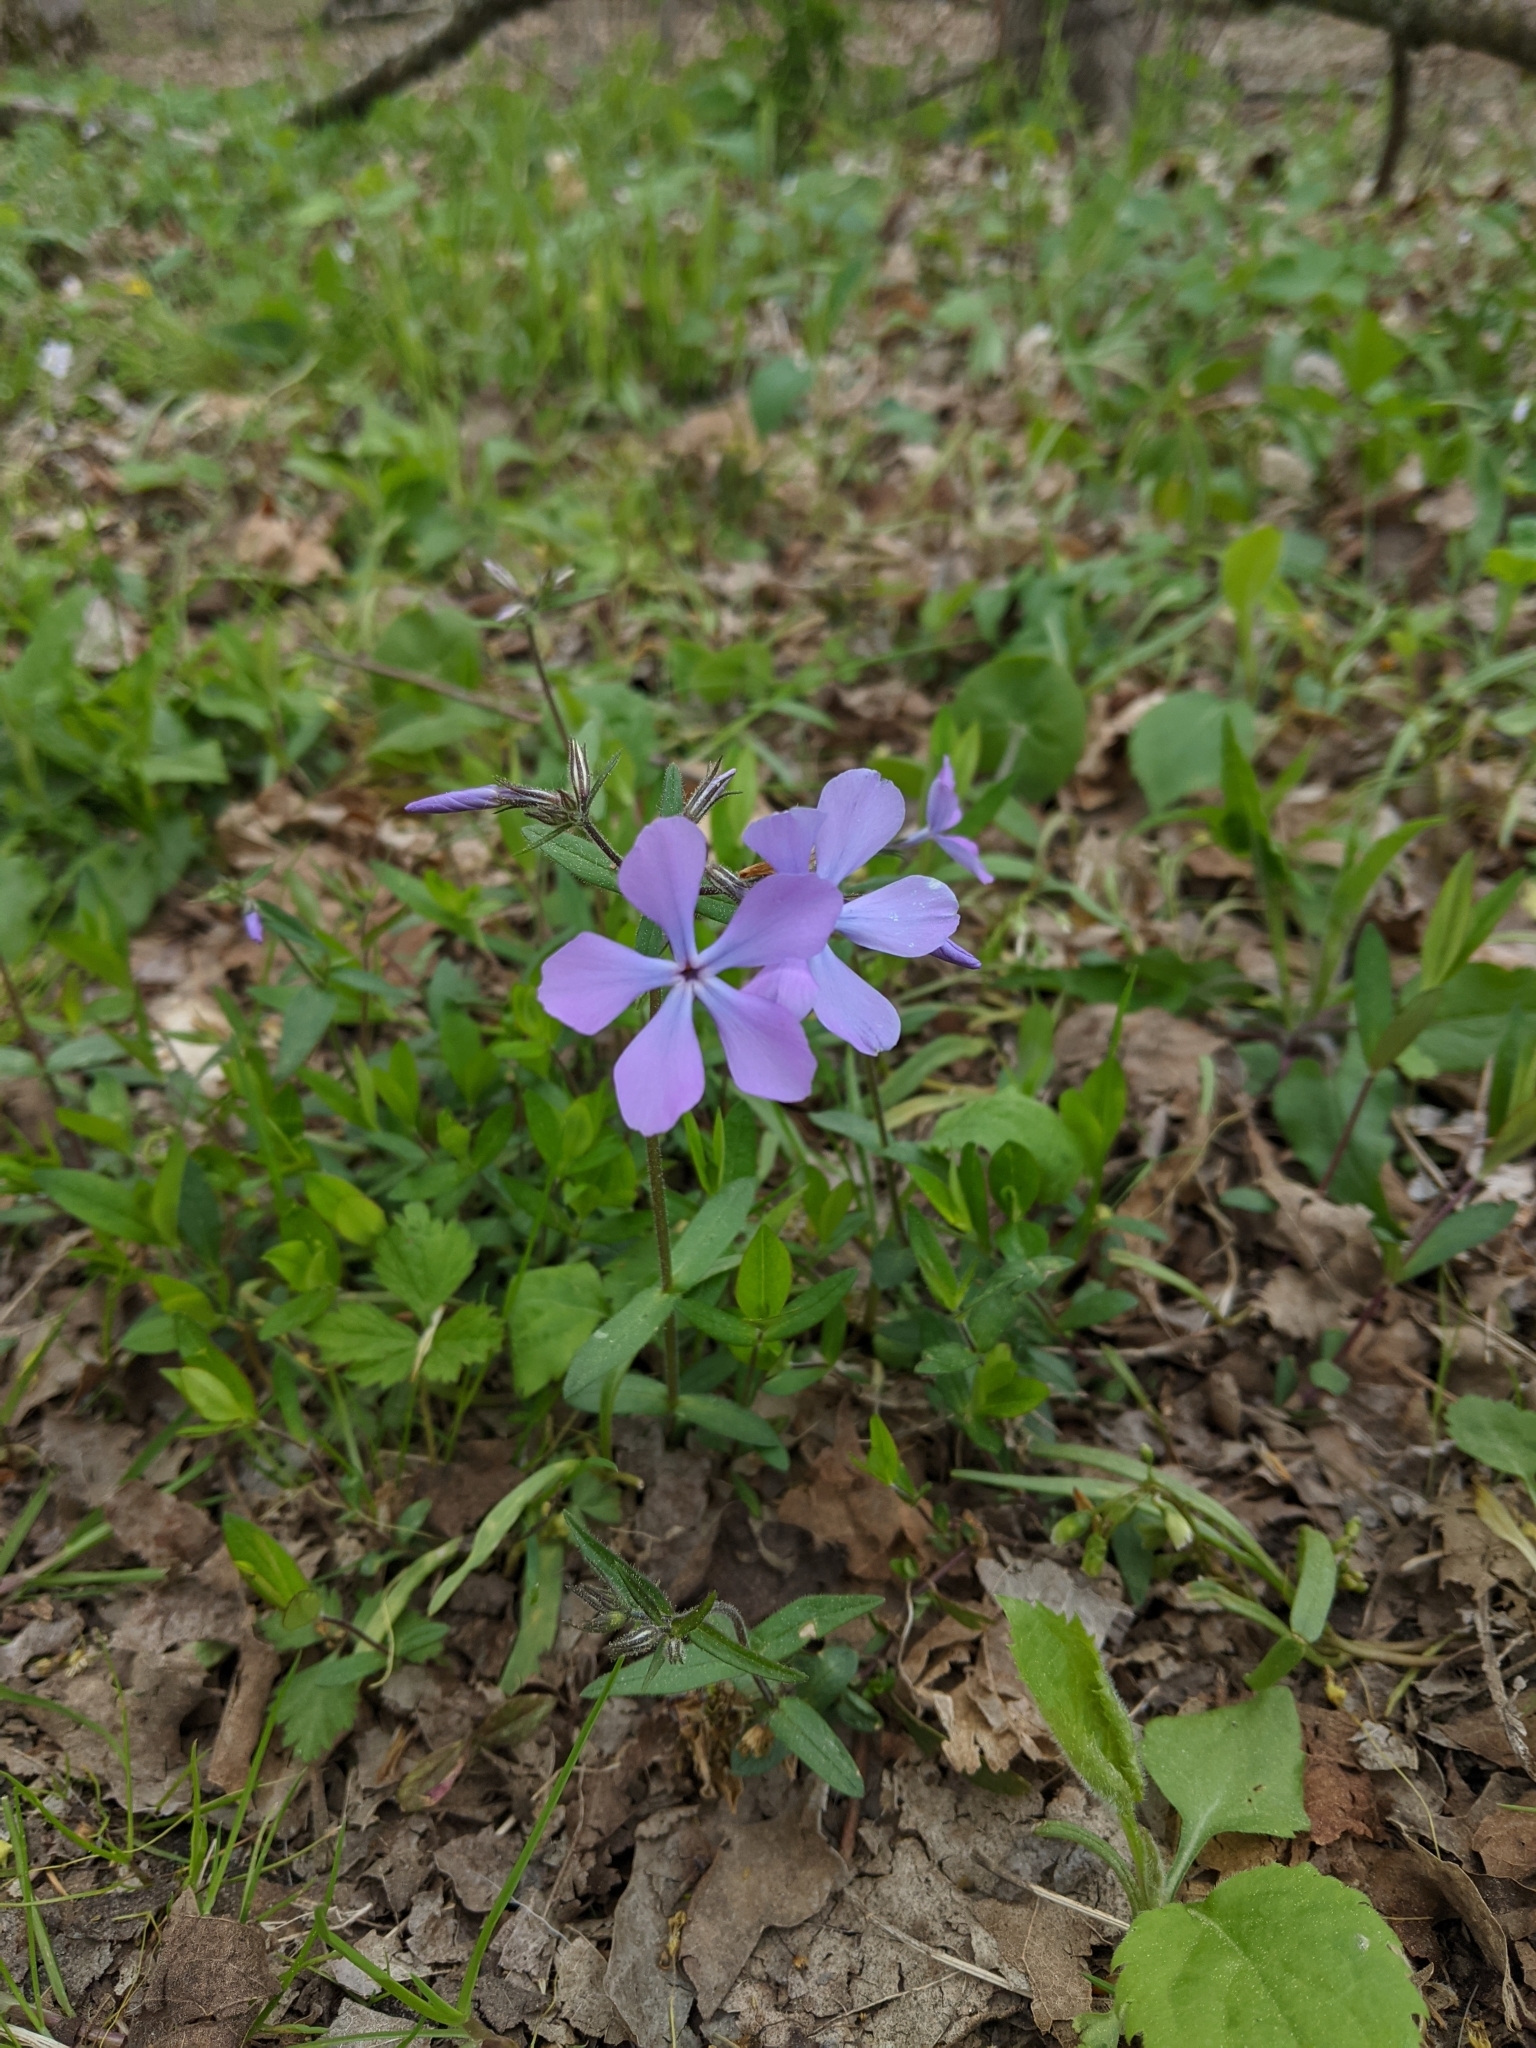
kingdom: Plantae
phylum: Tracheophyta
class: Magnoliopsida
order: Ericales
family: Polemoniaceae
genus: Phlox
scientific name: Phlox divaricata
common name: Blue phlox
